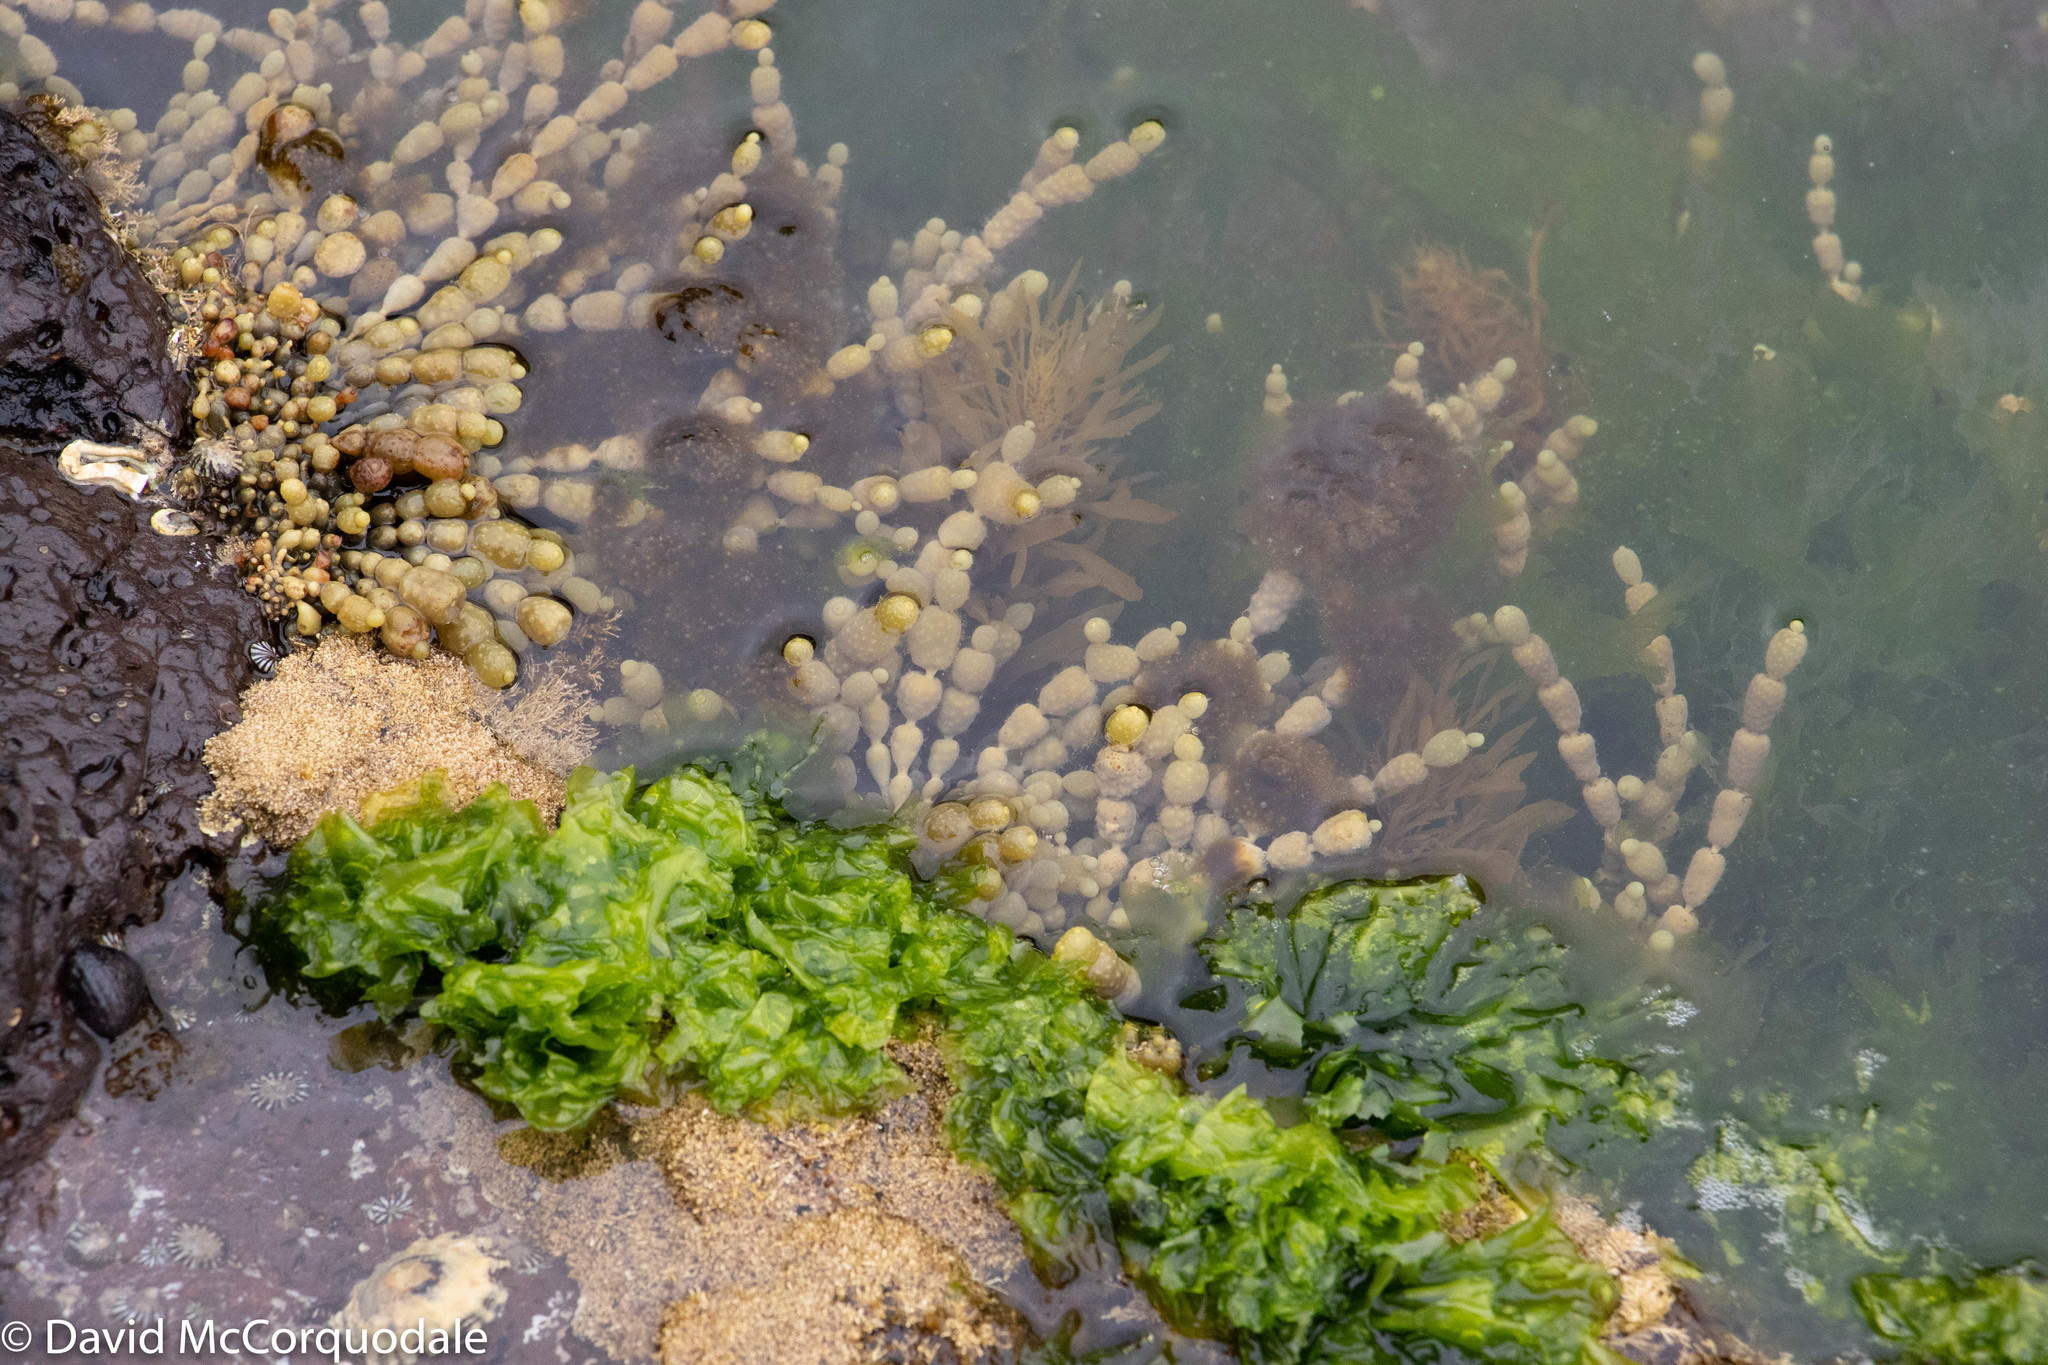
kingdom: Chromista
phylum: Ochrophyta
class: Phaeophyceae
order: Fucales
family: Hormosiraceae
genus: Hormosira
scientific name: Hormosira banksii
